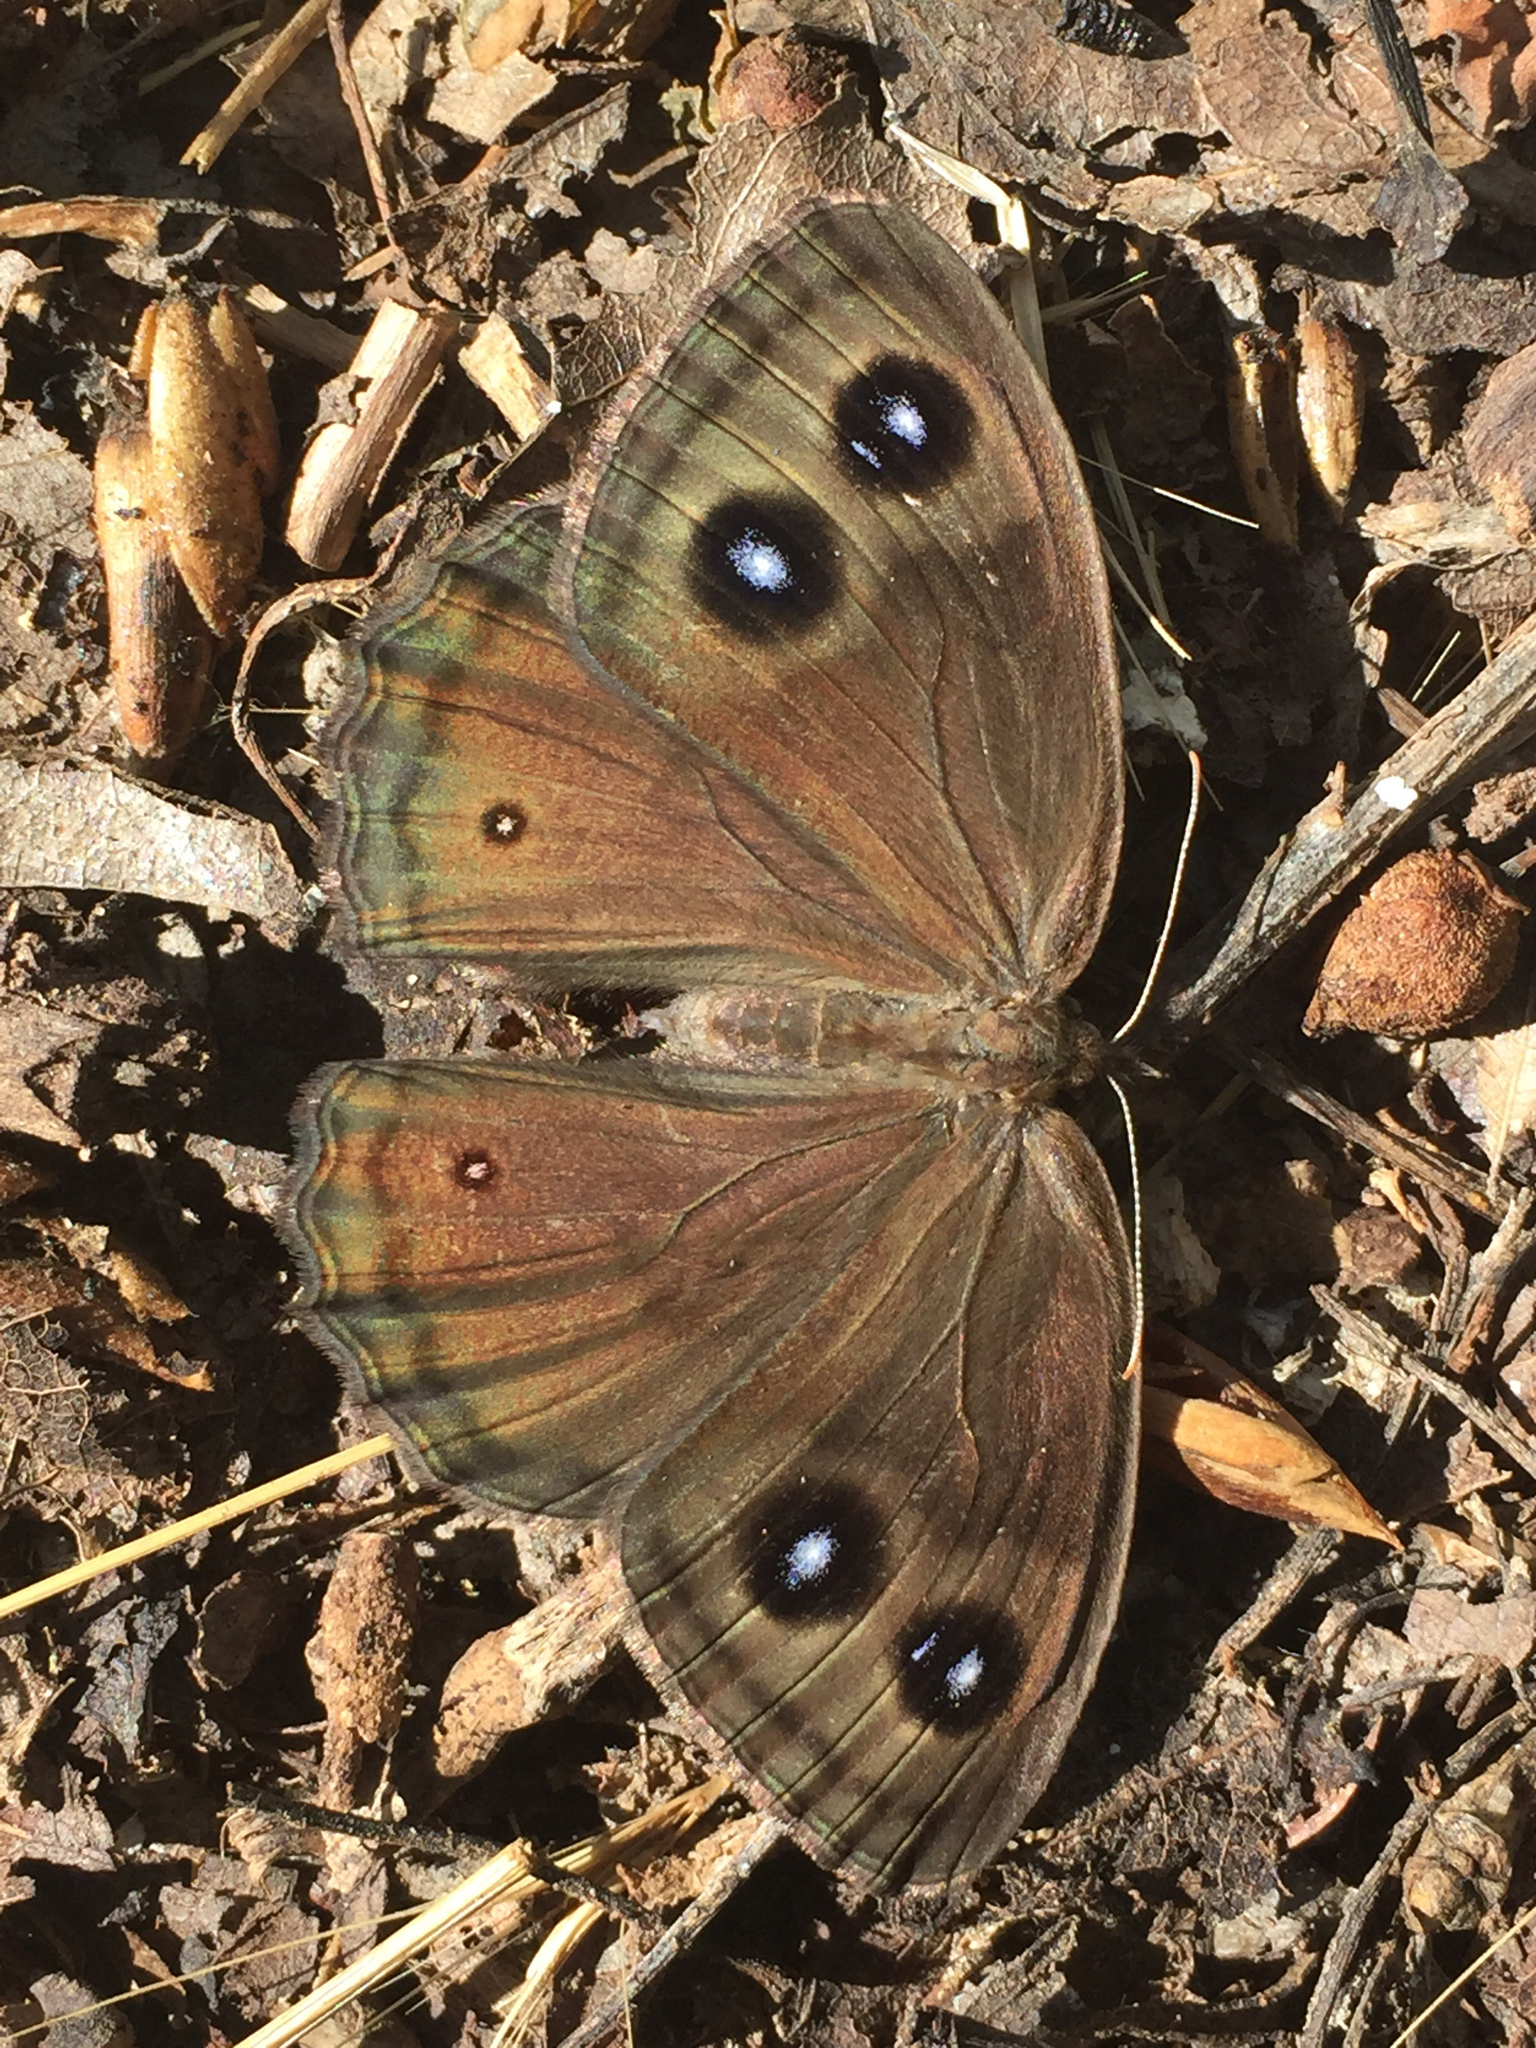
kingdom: Animalia
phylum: Arthropoda
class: Insecta
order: Lepidoptera
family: Nymphalidae
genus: Cercyonis
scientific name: Cercyonis pegala
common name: Common wood-nymph
